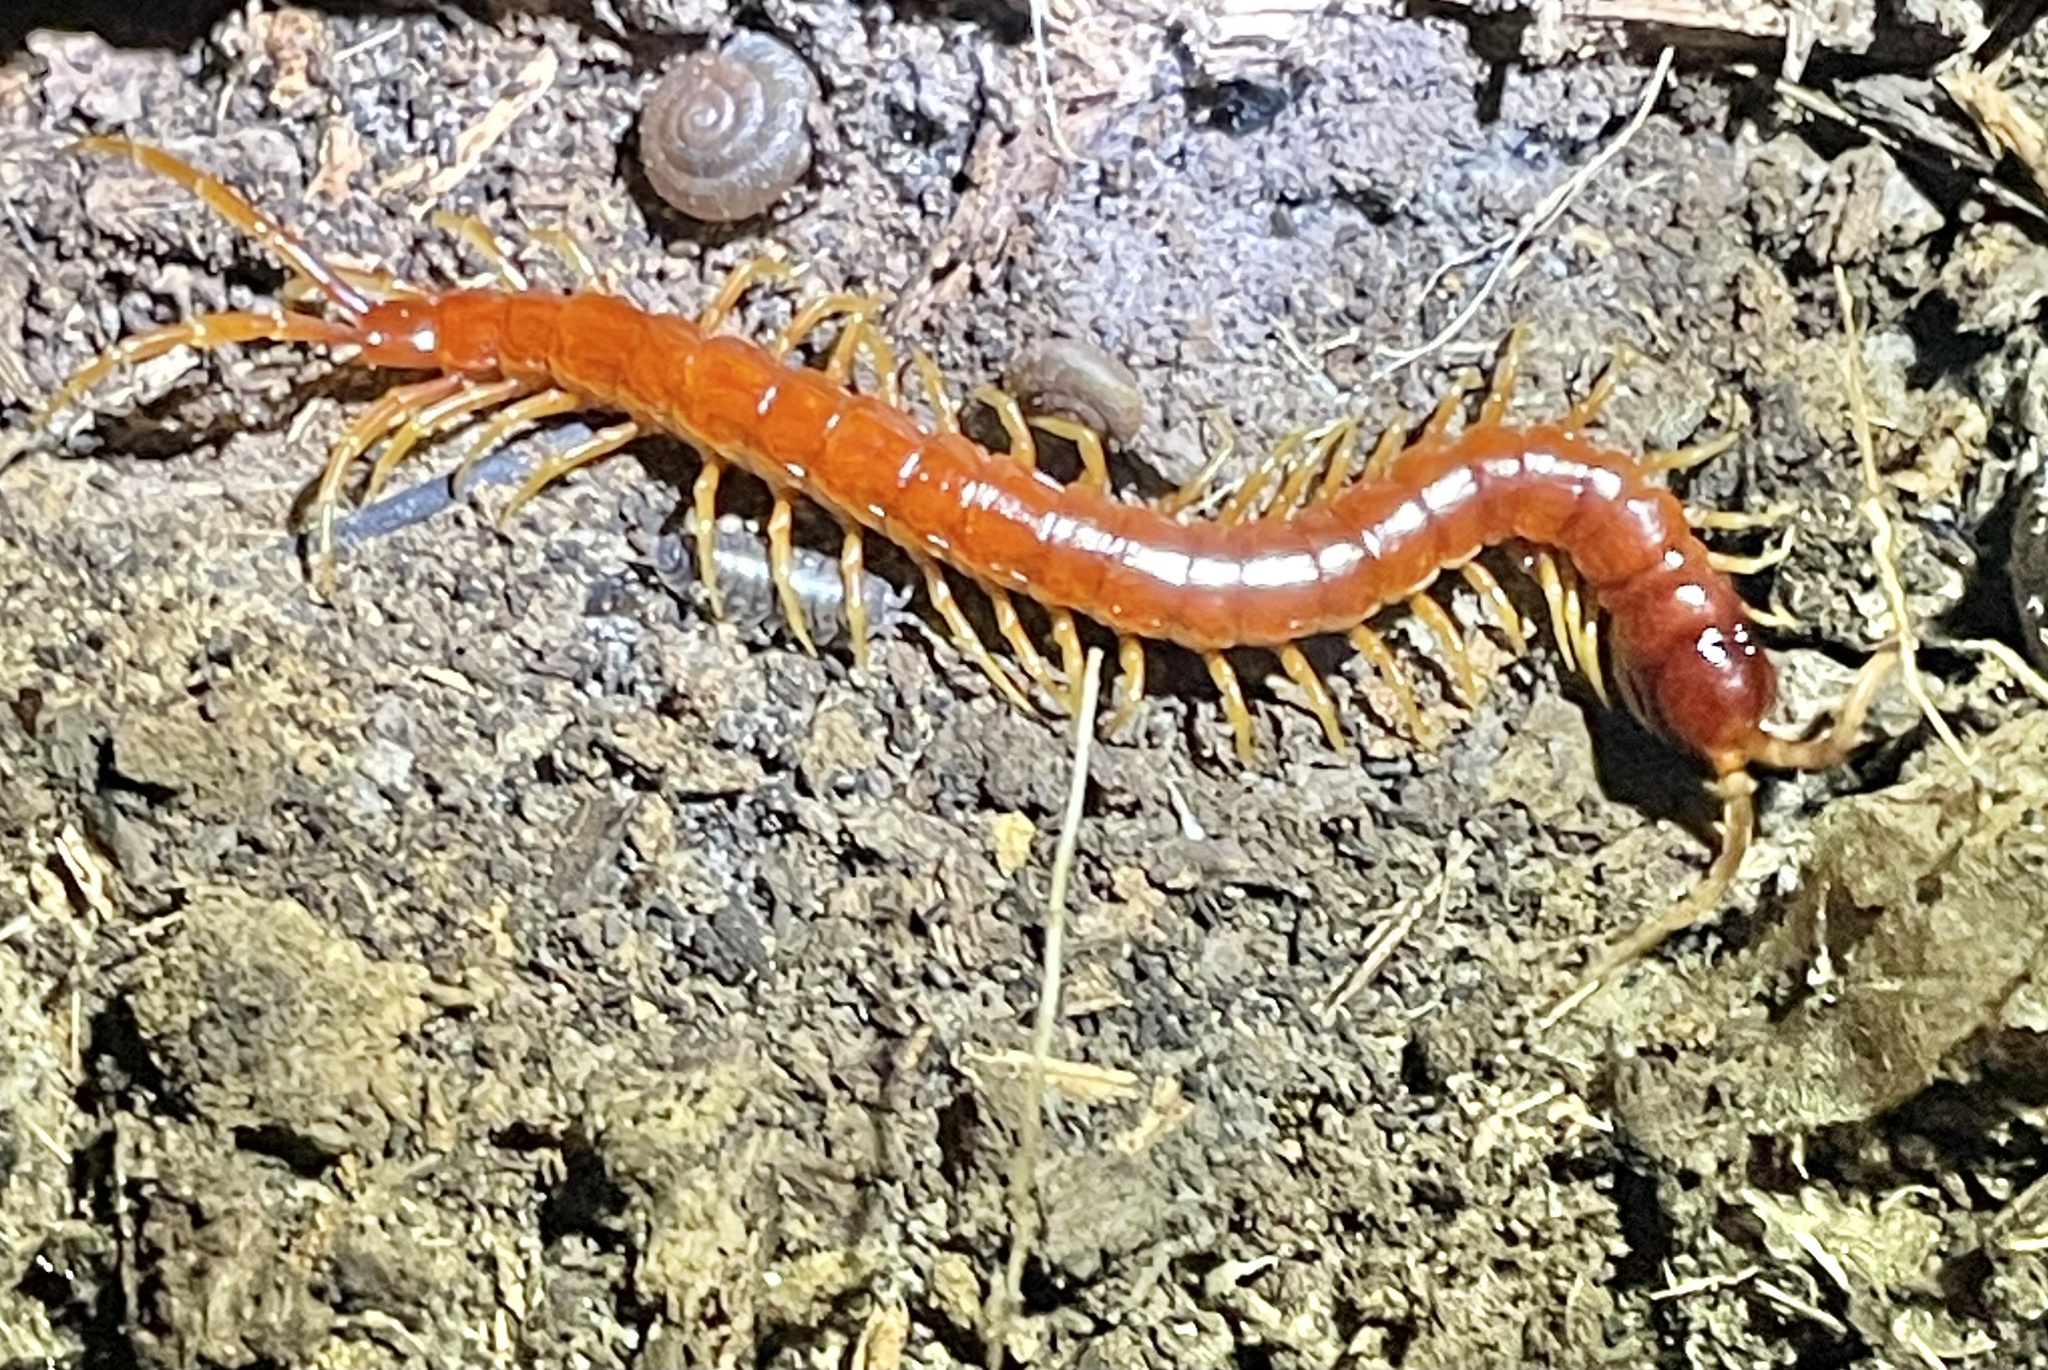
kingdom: Animalia
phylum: Arthropoda
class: Chilopoda
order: Scolopendromorpha
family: Scolopocryptopidae
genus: Scolopocryptops
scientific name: Scolopocryptops sexspinosus
